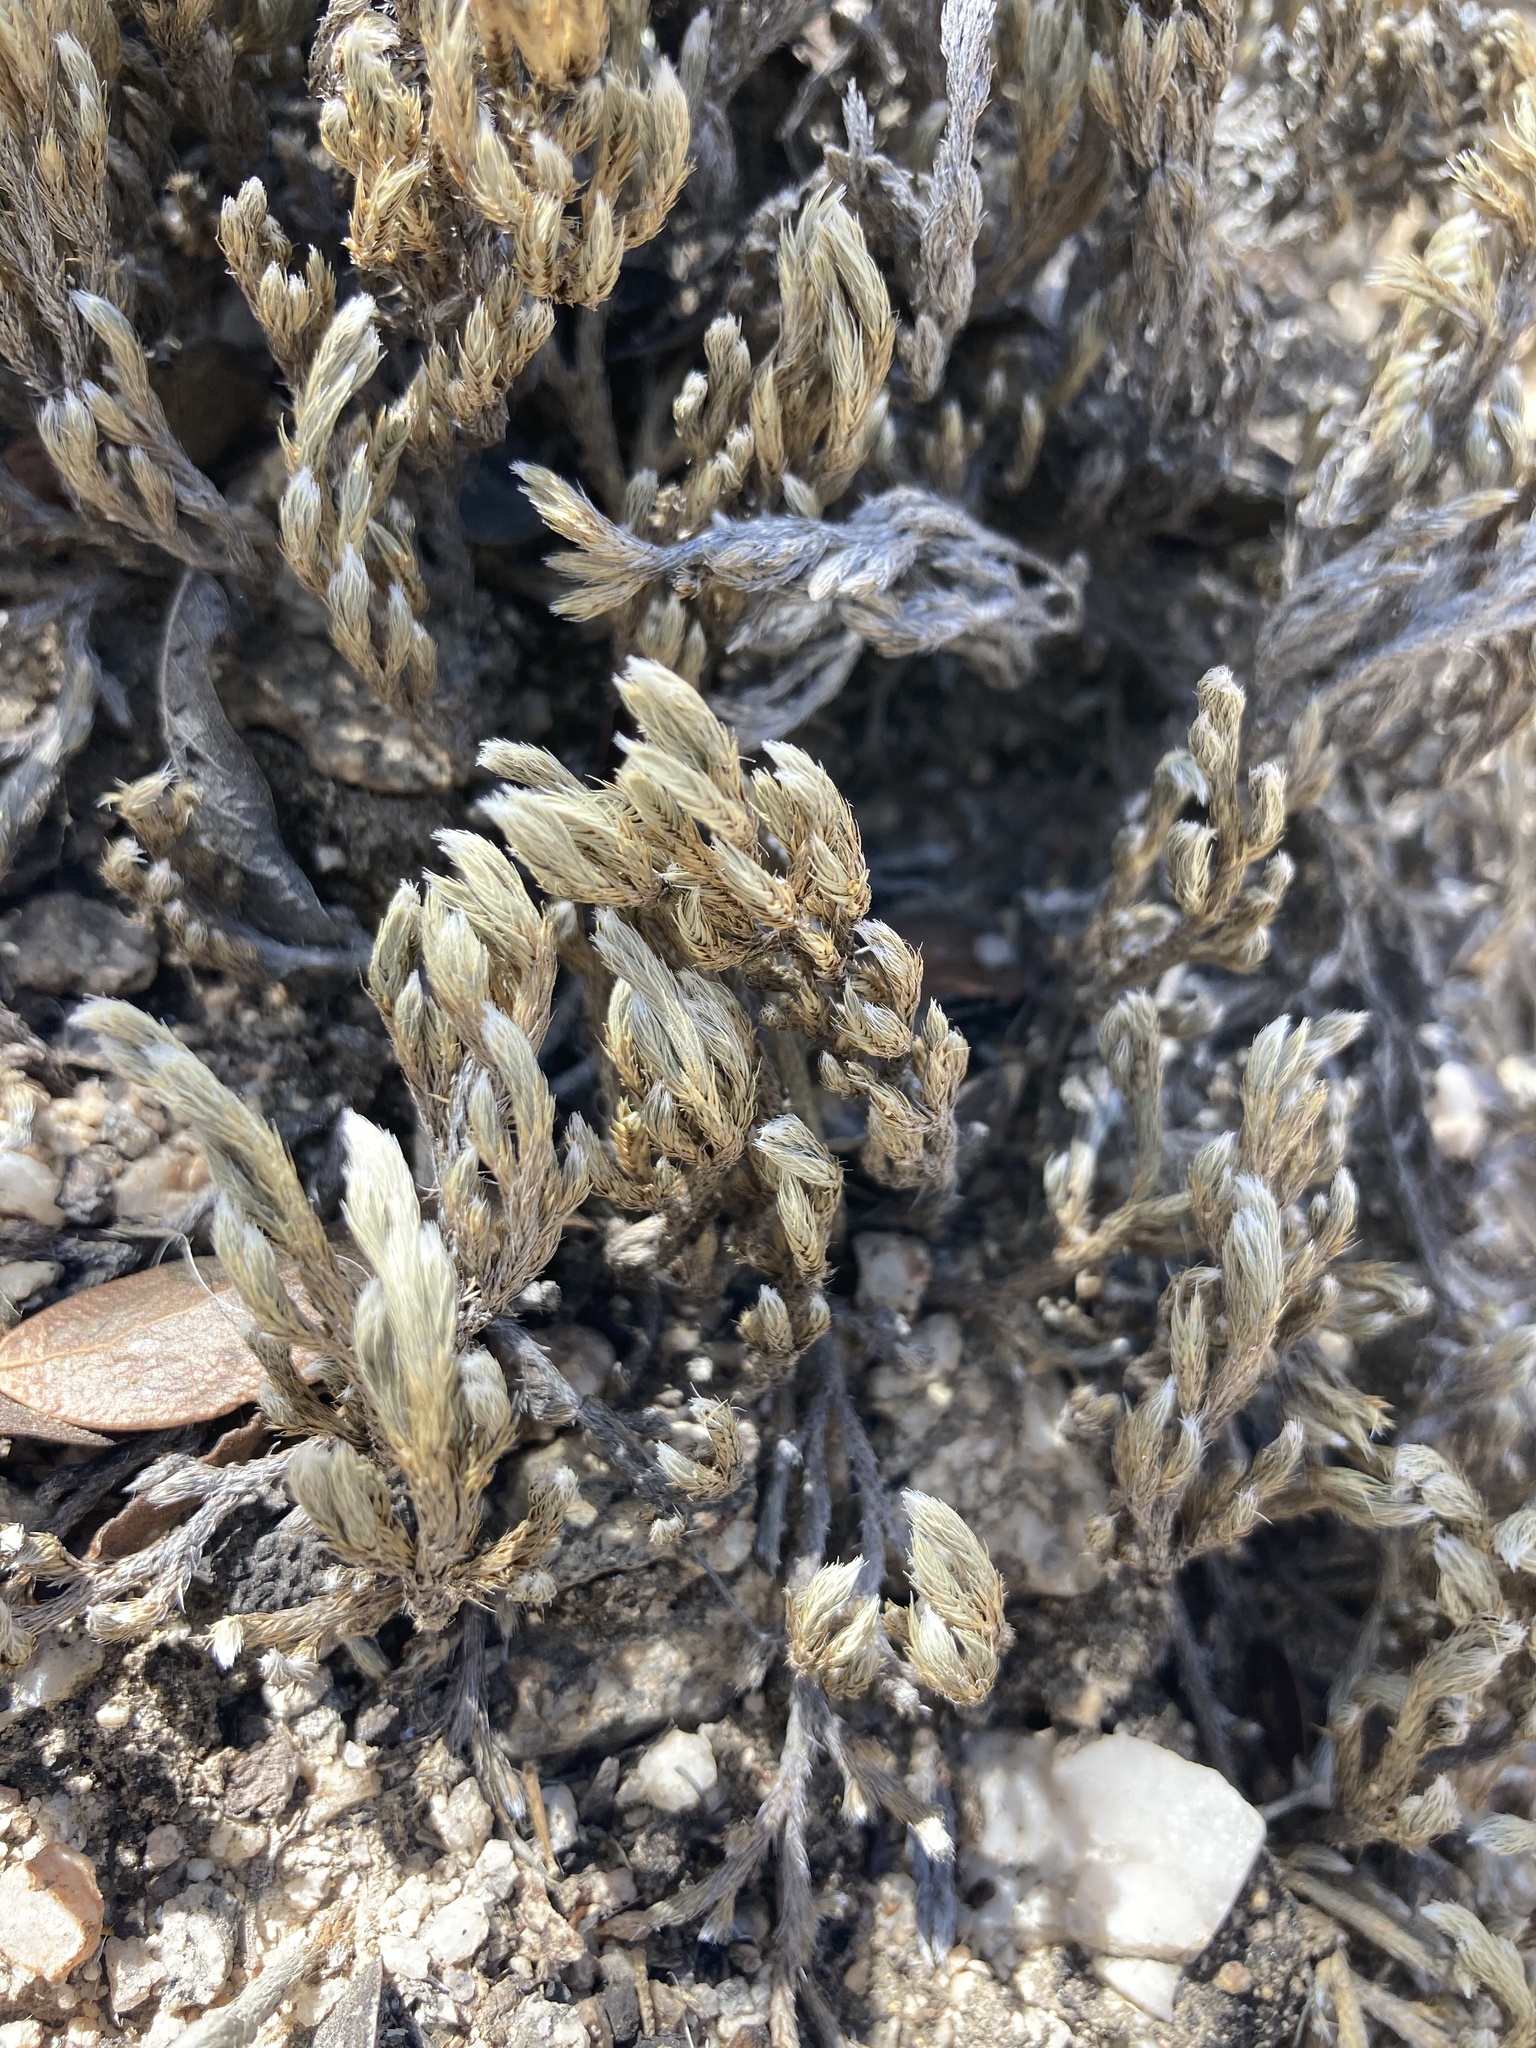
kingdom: Plantae
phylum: Tracheophyta
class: Lycopodiopsida
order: Selaginellales
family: Selaginellaceae
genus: Selaginella
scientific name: Selaginella rupincola
